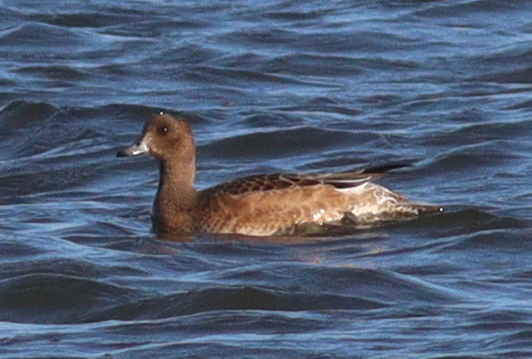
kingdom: Animalia
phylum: Chordata
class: Aves
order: Anseriformes
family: Anatidae
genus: Mareca
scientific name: Mareca penelope
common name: Eurasian wigeon
